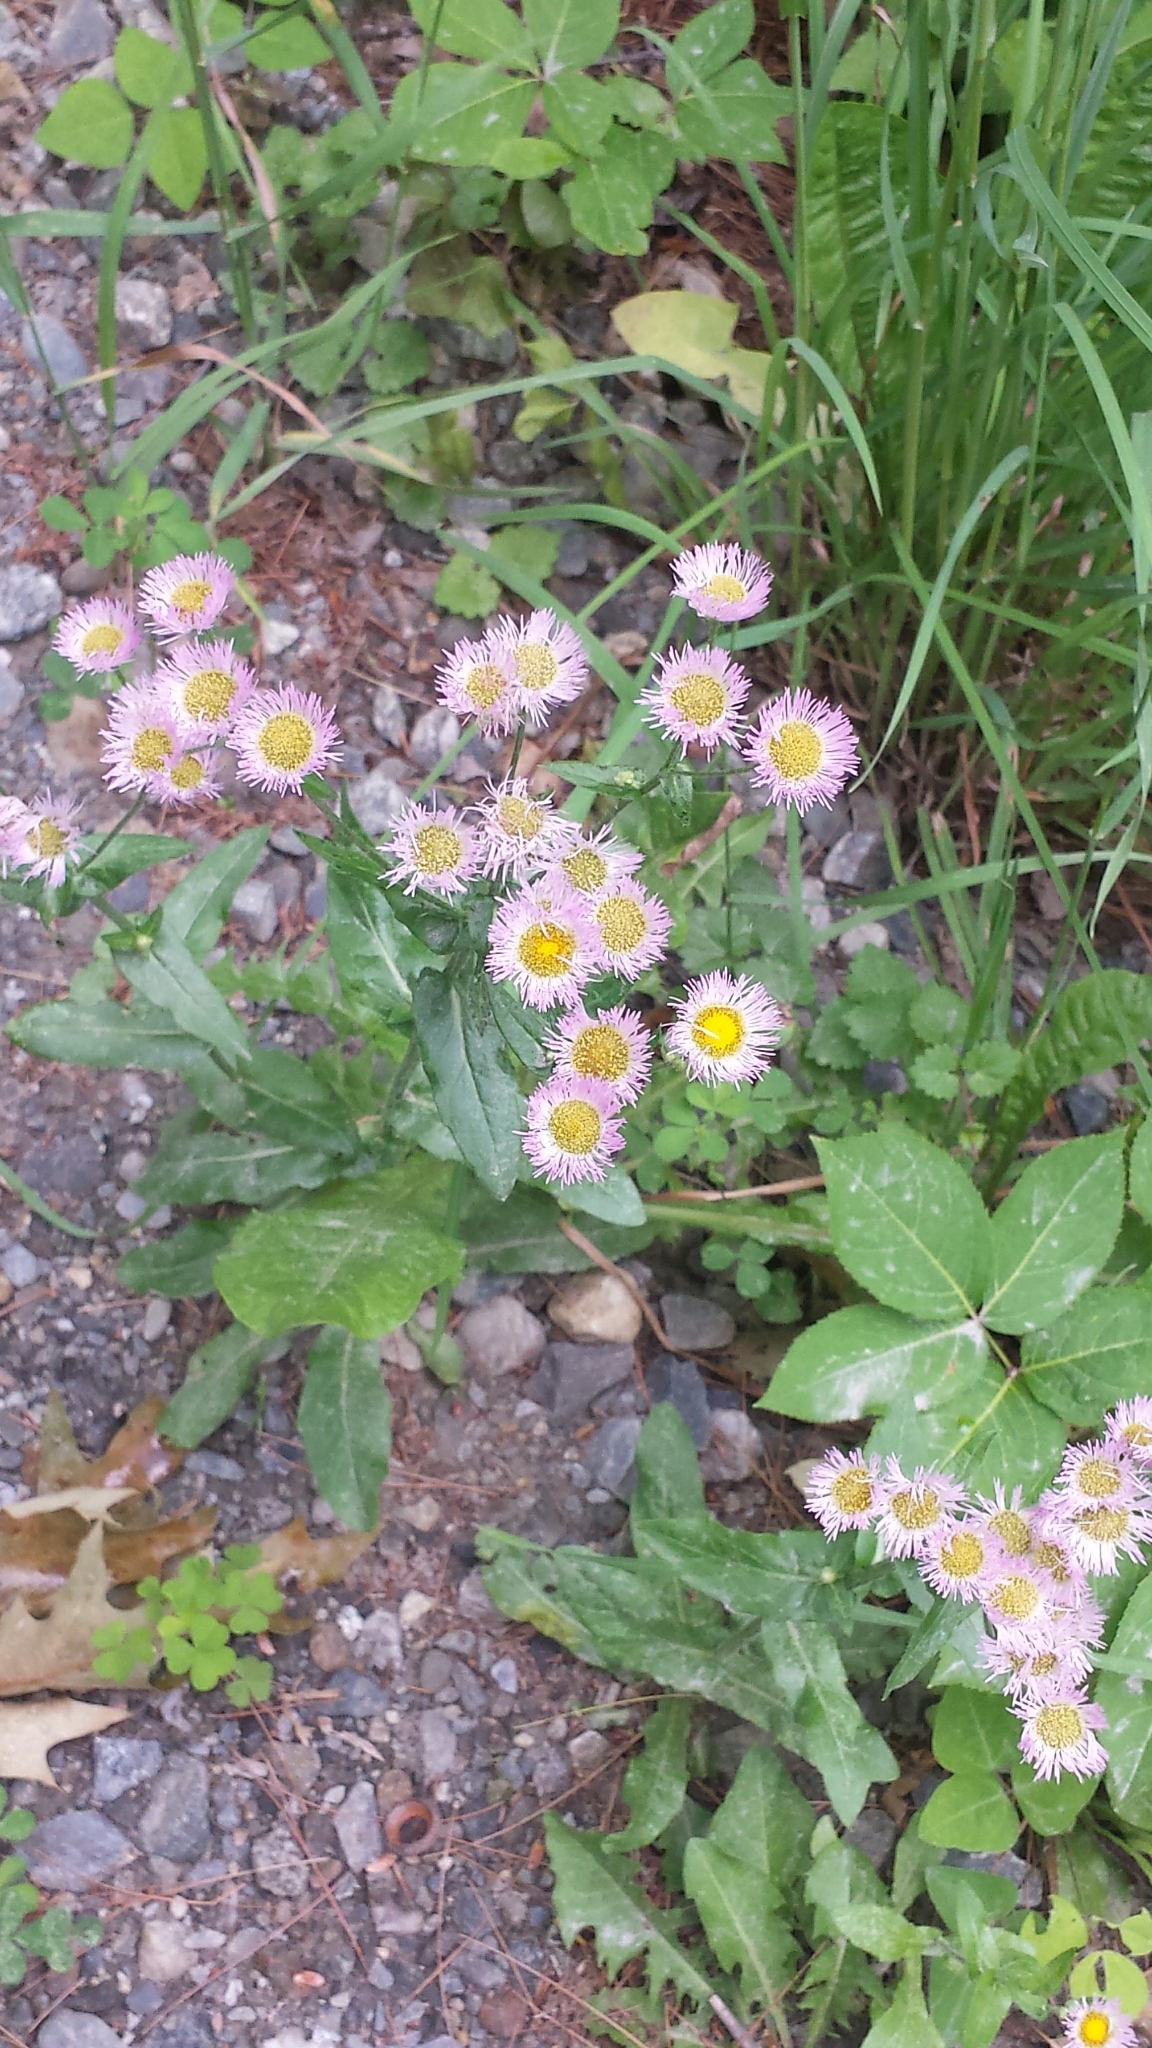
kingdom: Plantae
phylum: Tracheophyta
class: Magnoliopsida
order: Asterales
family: Asteraceae
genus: Erigeron
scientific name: Erigeron philadelphicus
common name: Robin's-plantain
